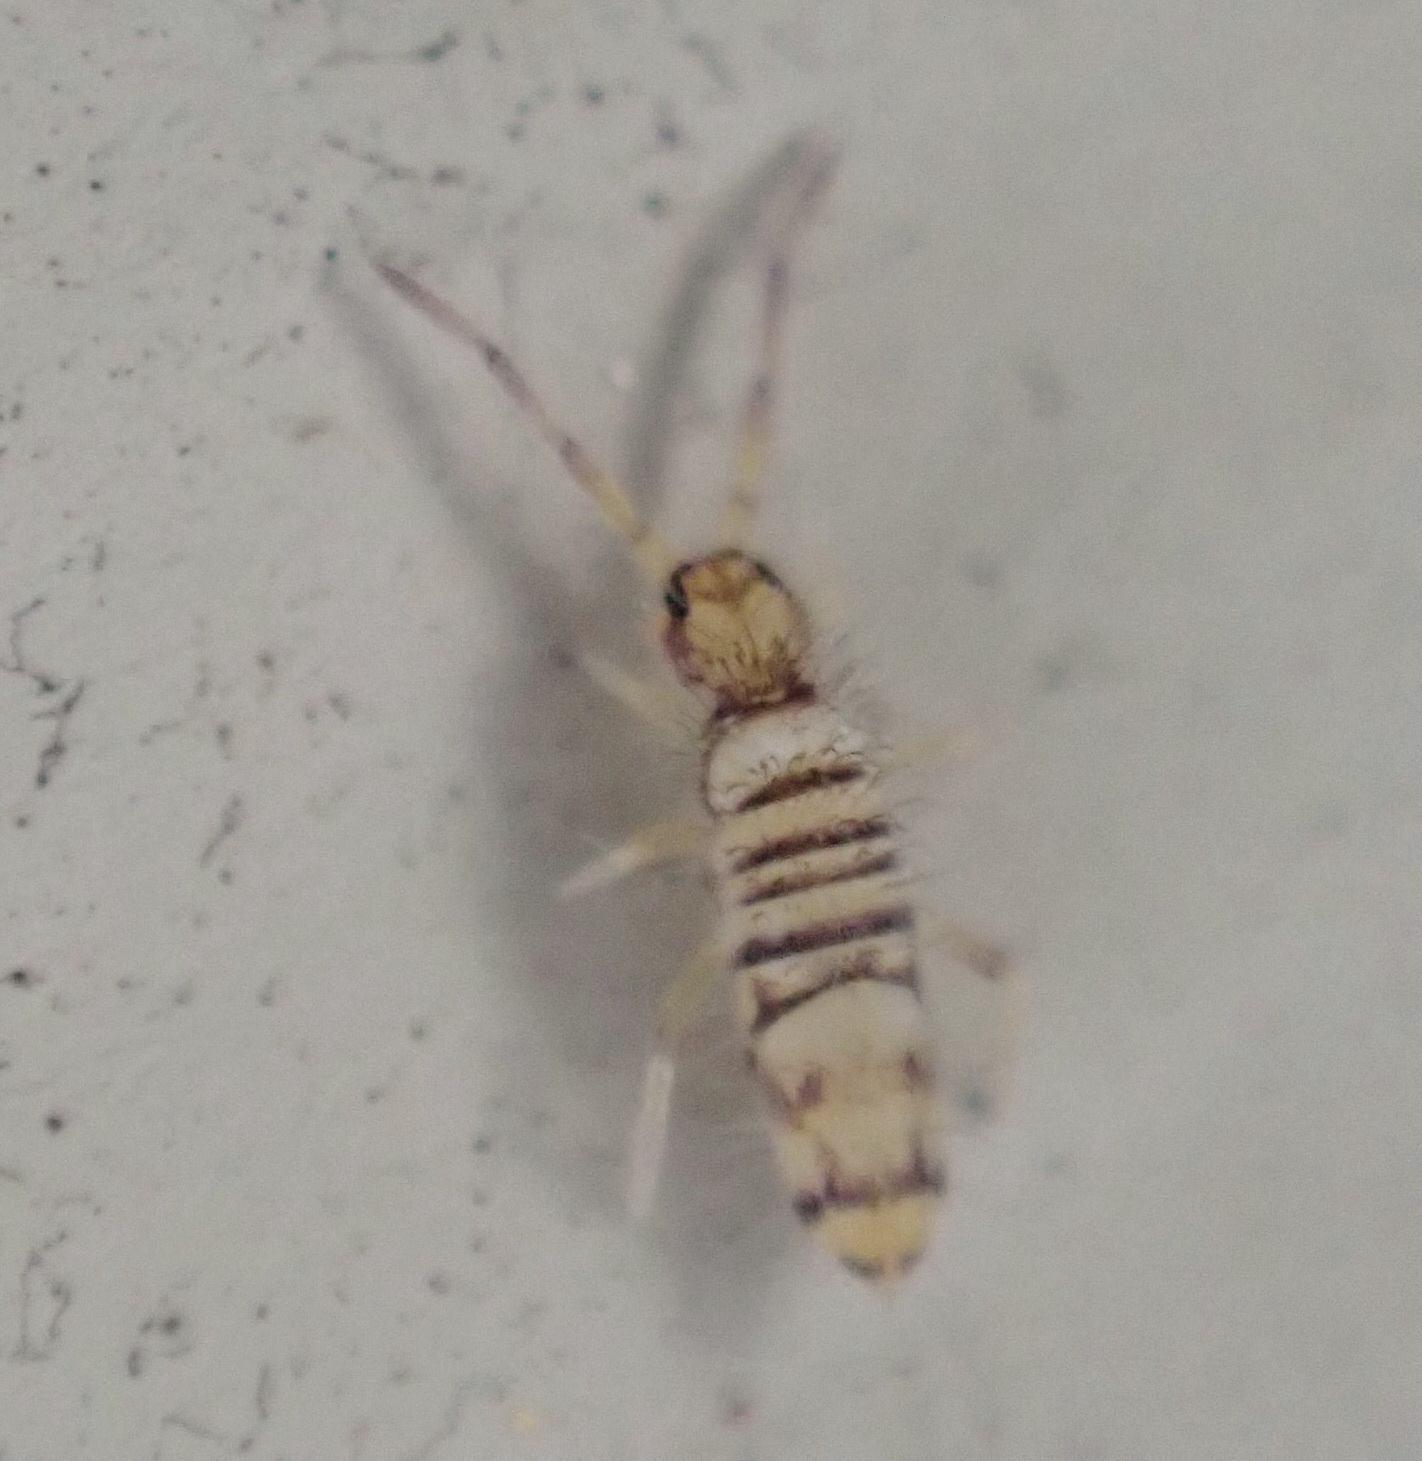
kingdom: Animalia
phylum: Arthropoda
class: Collembola
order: Entomobryomorpha
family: Entomobryidae
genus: Entomobrya
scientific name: Entomobrya atrocincta
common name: Springtail
